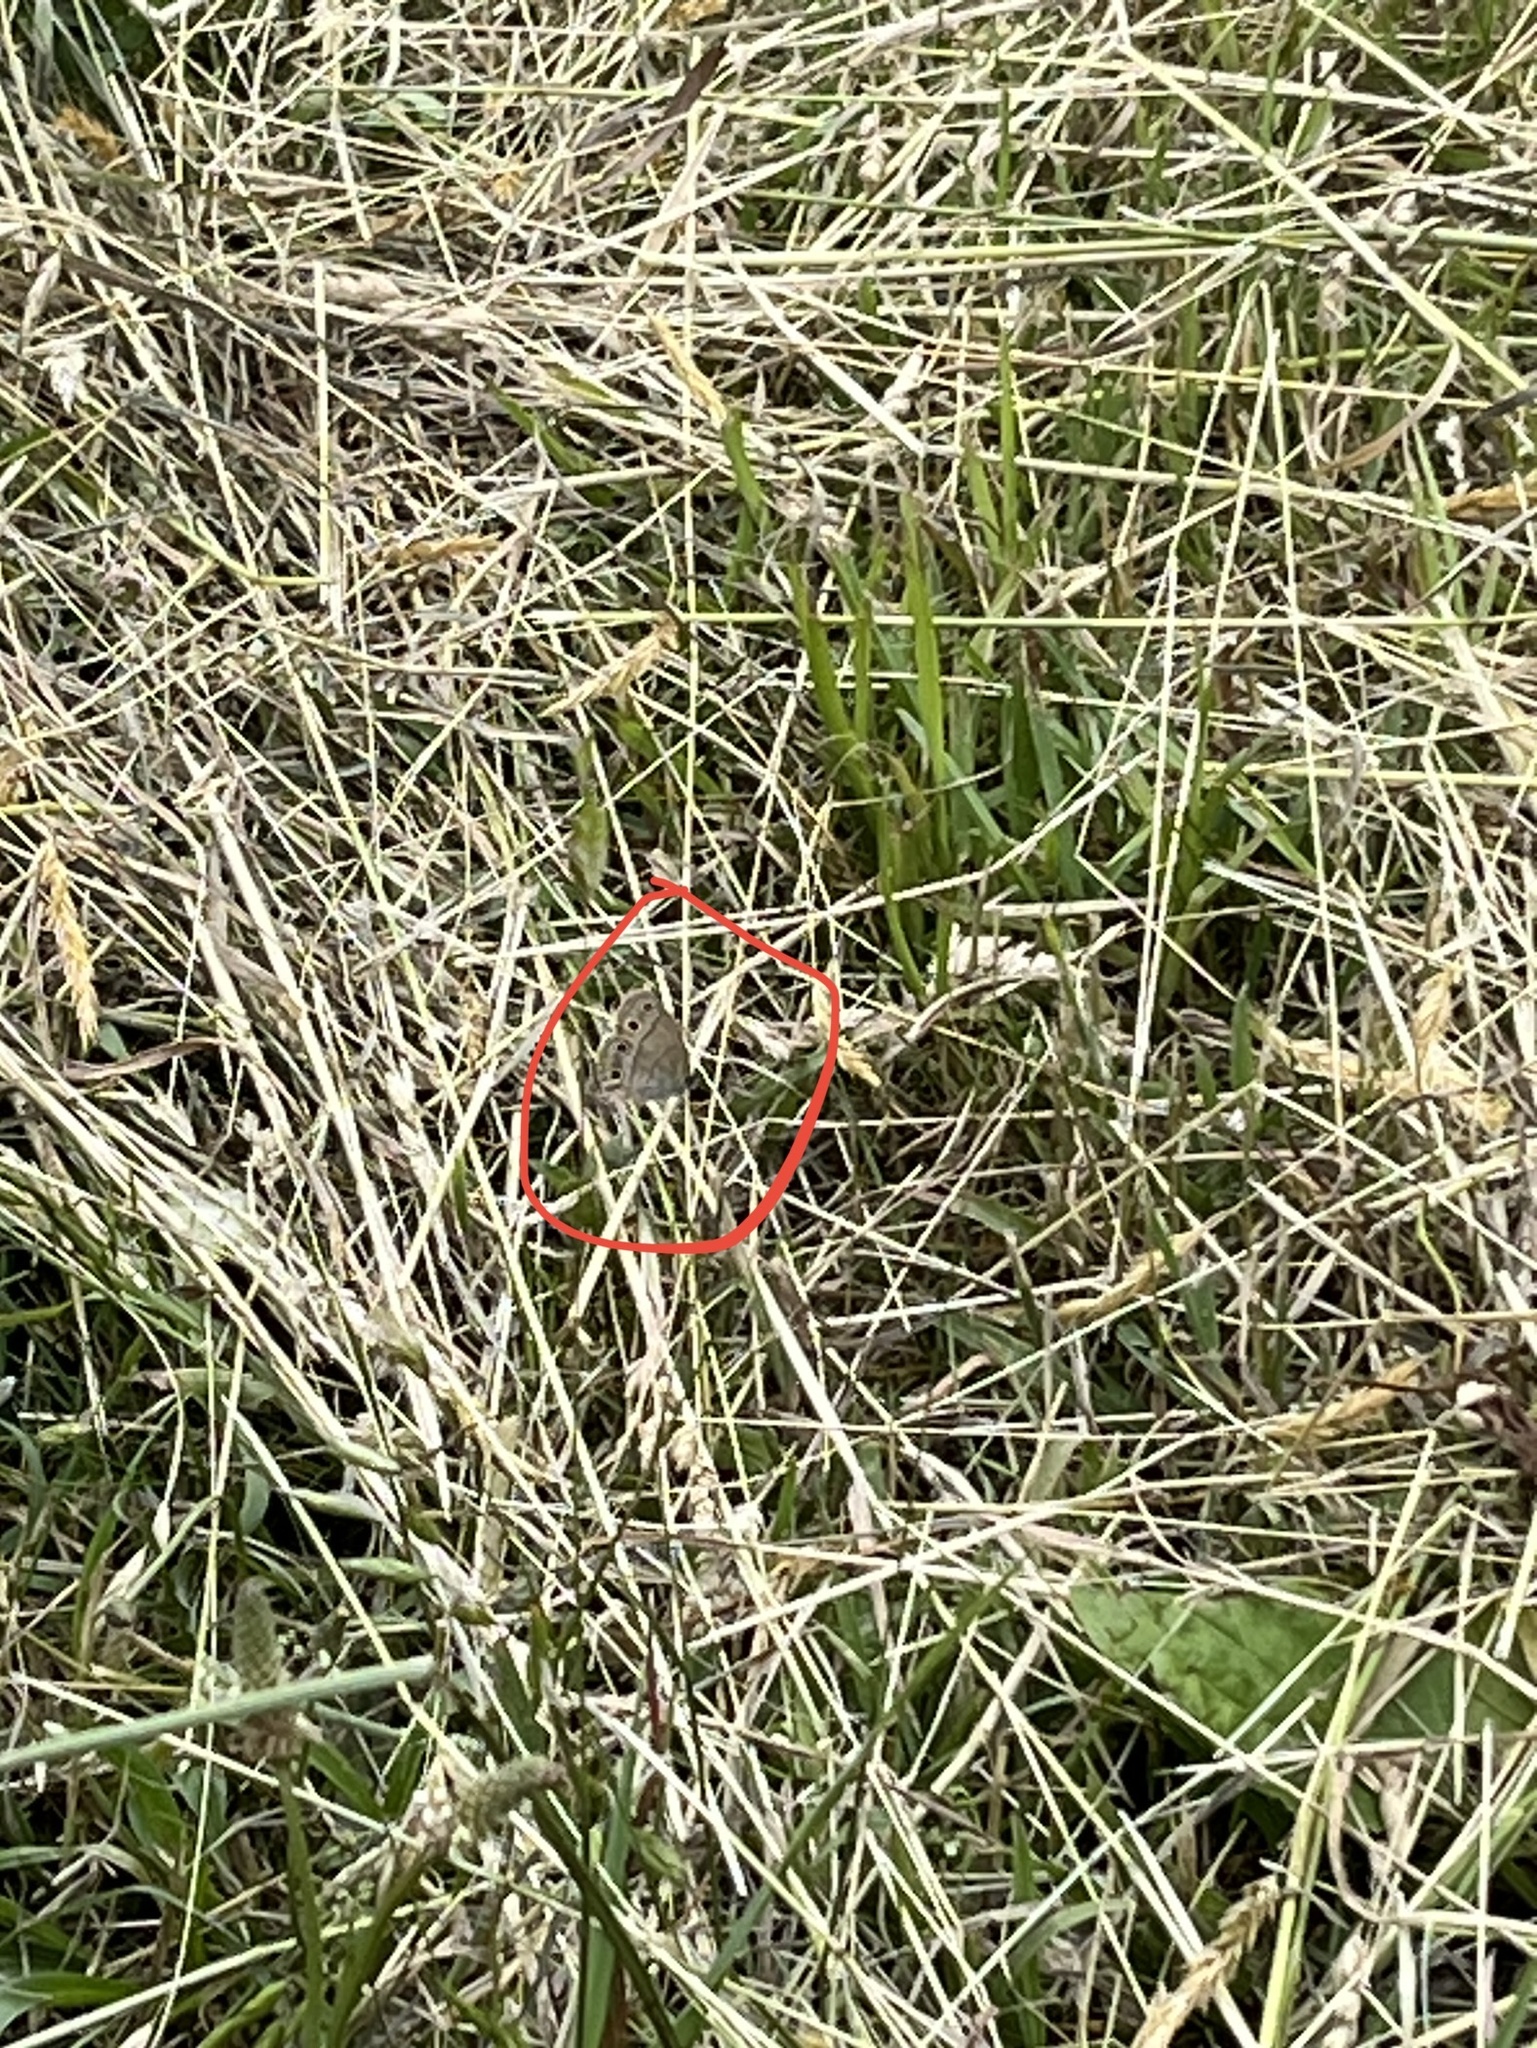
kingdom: Animalia
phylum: Arthropoda
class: Insecta
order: Lepidoptera
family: Nymphalidae
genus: Euptychia
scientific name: Euptychia cymela
